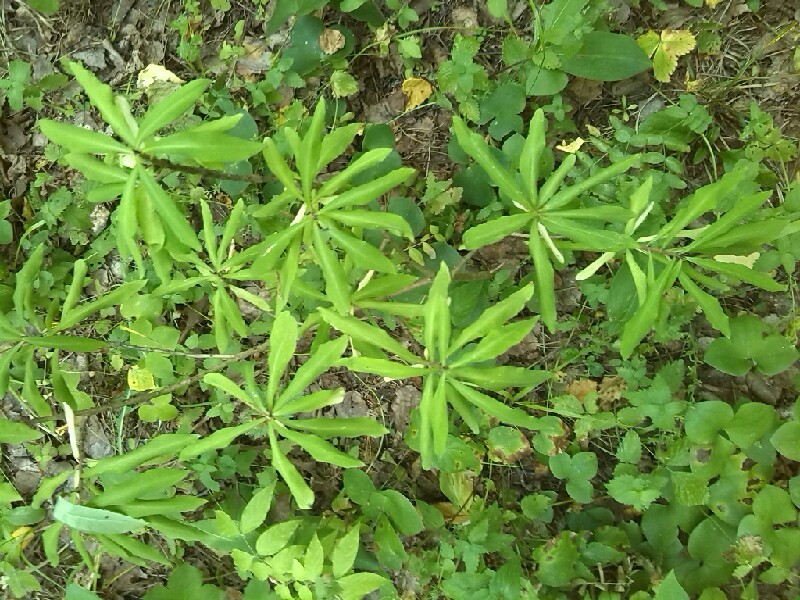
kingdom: Plantae
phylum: Tracheophyta
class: Magnoliopsida
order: Malvales
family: Thymelaeaceae
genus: Daphne
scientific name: Daphne mezereum
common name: Mezereon
